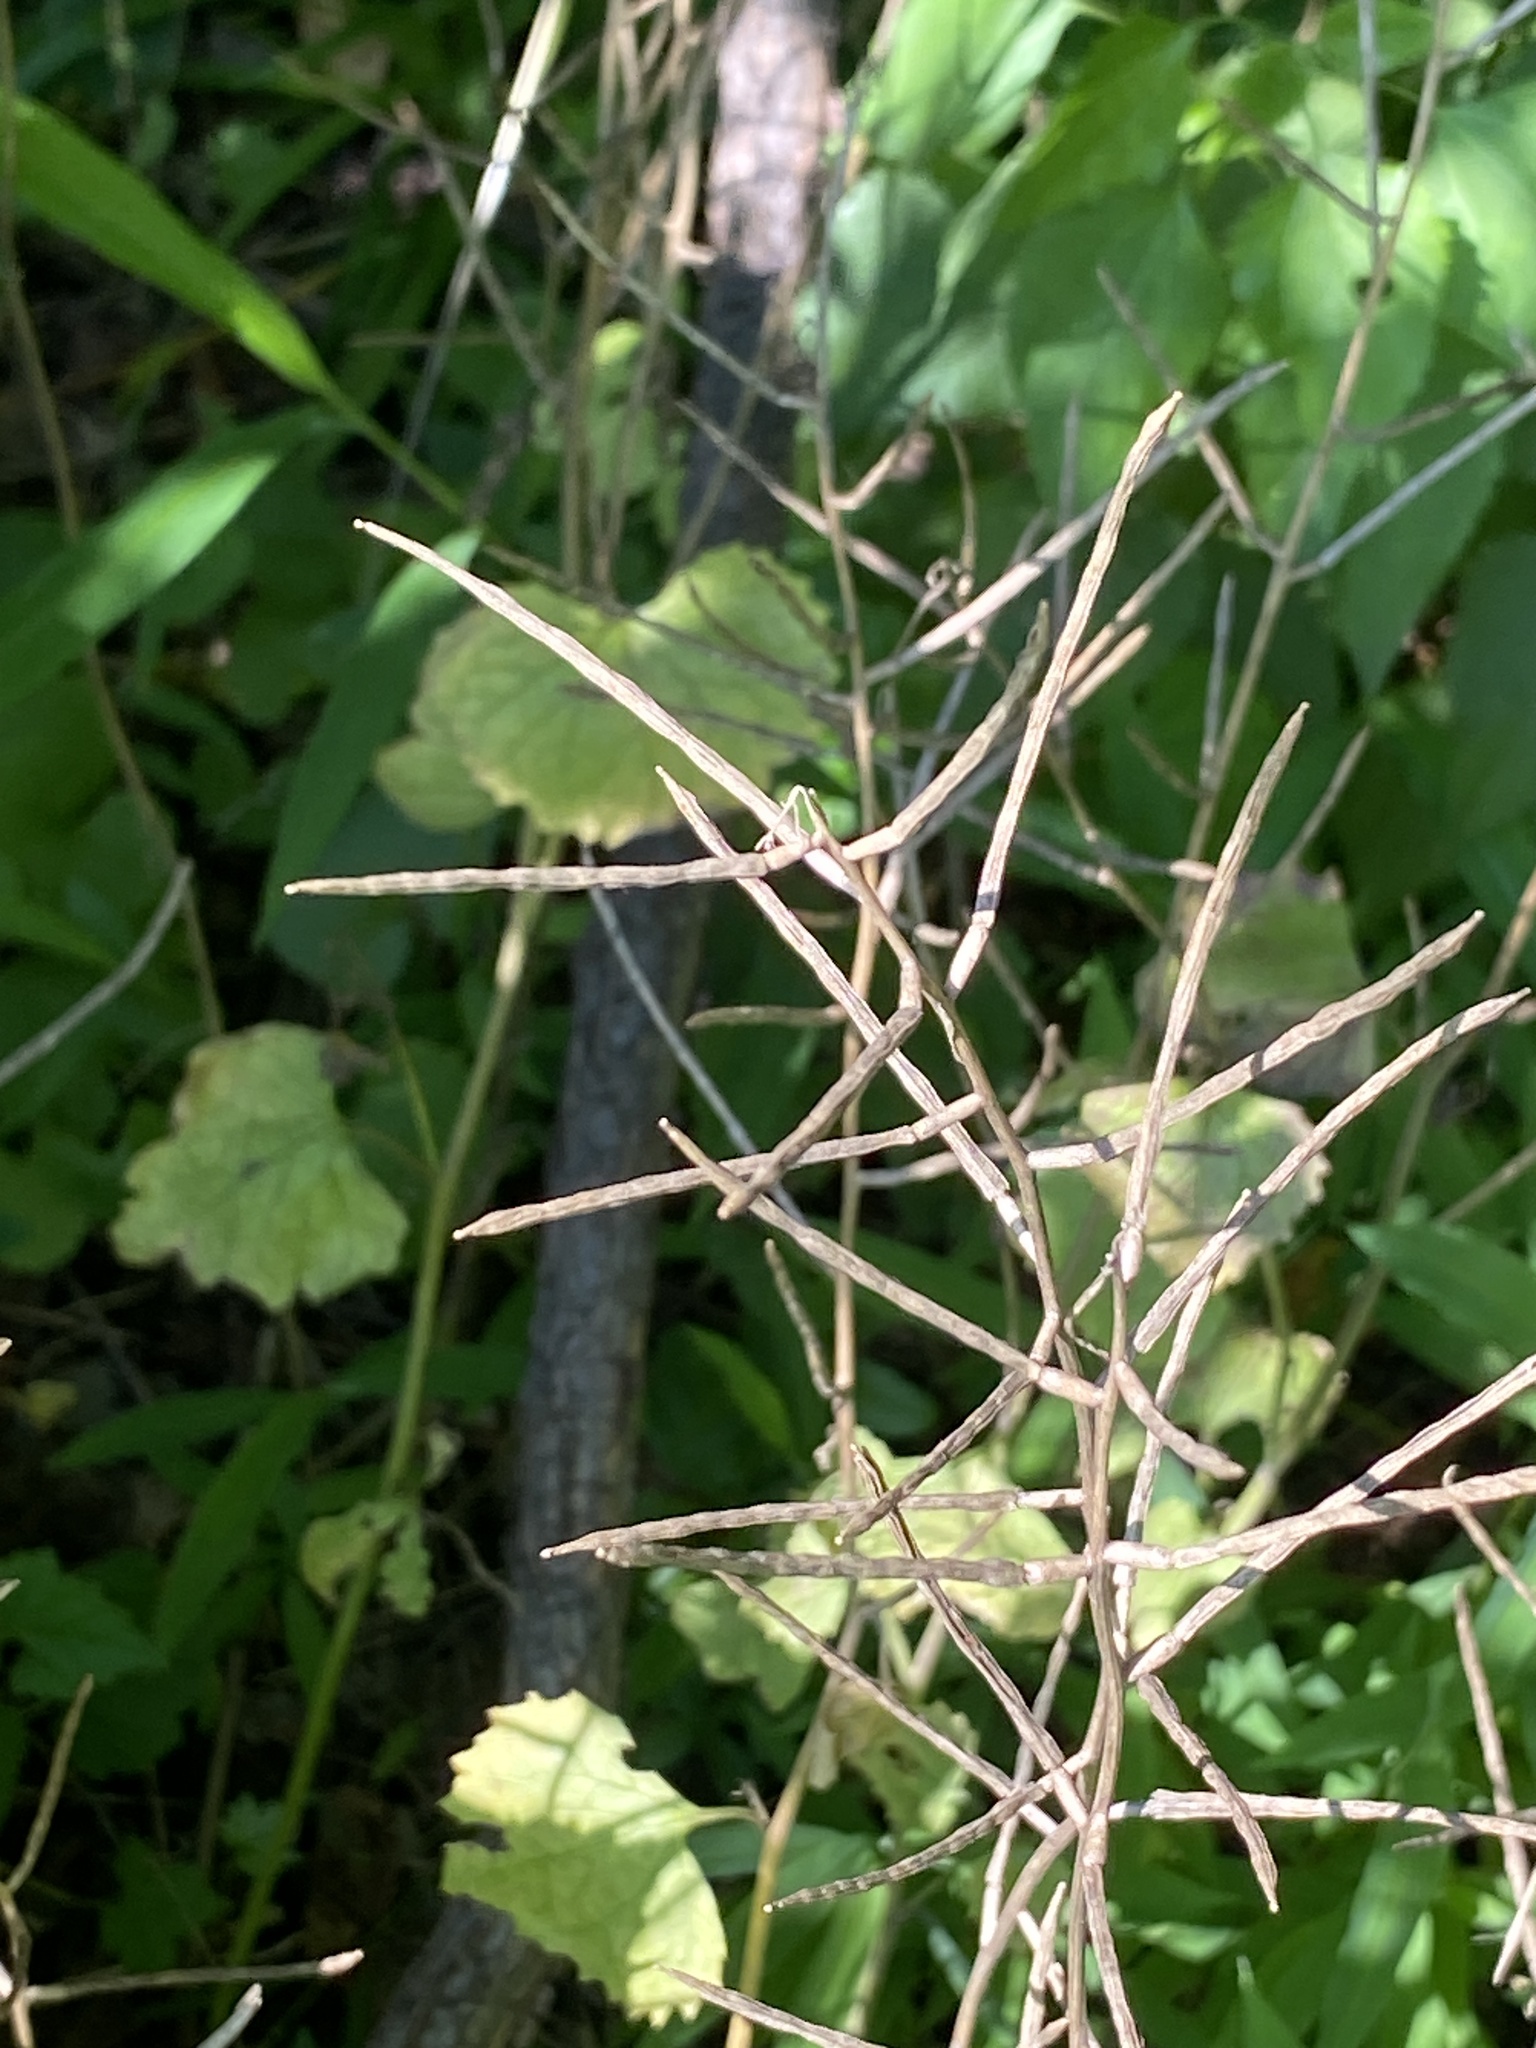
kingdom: Plantae
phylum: Tracheophyta
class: Magnoliopsida
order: Brassicales
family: Brassicaceae
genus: Alliaria
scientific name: Alliaria petiolata
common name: Garlic mustard
